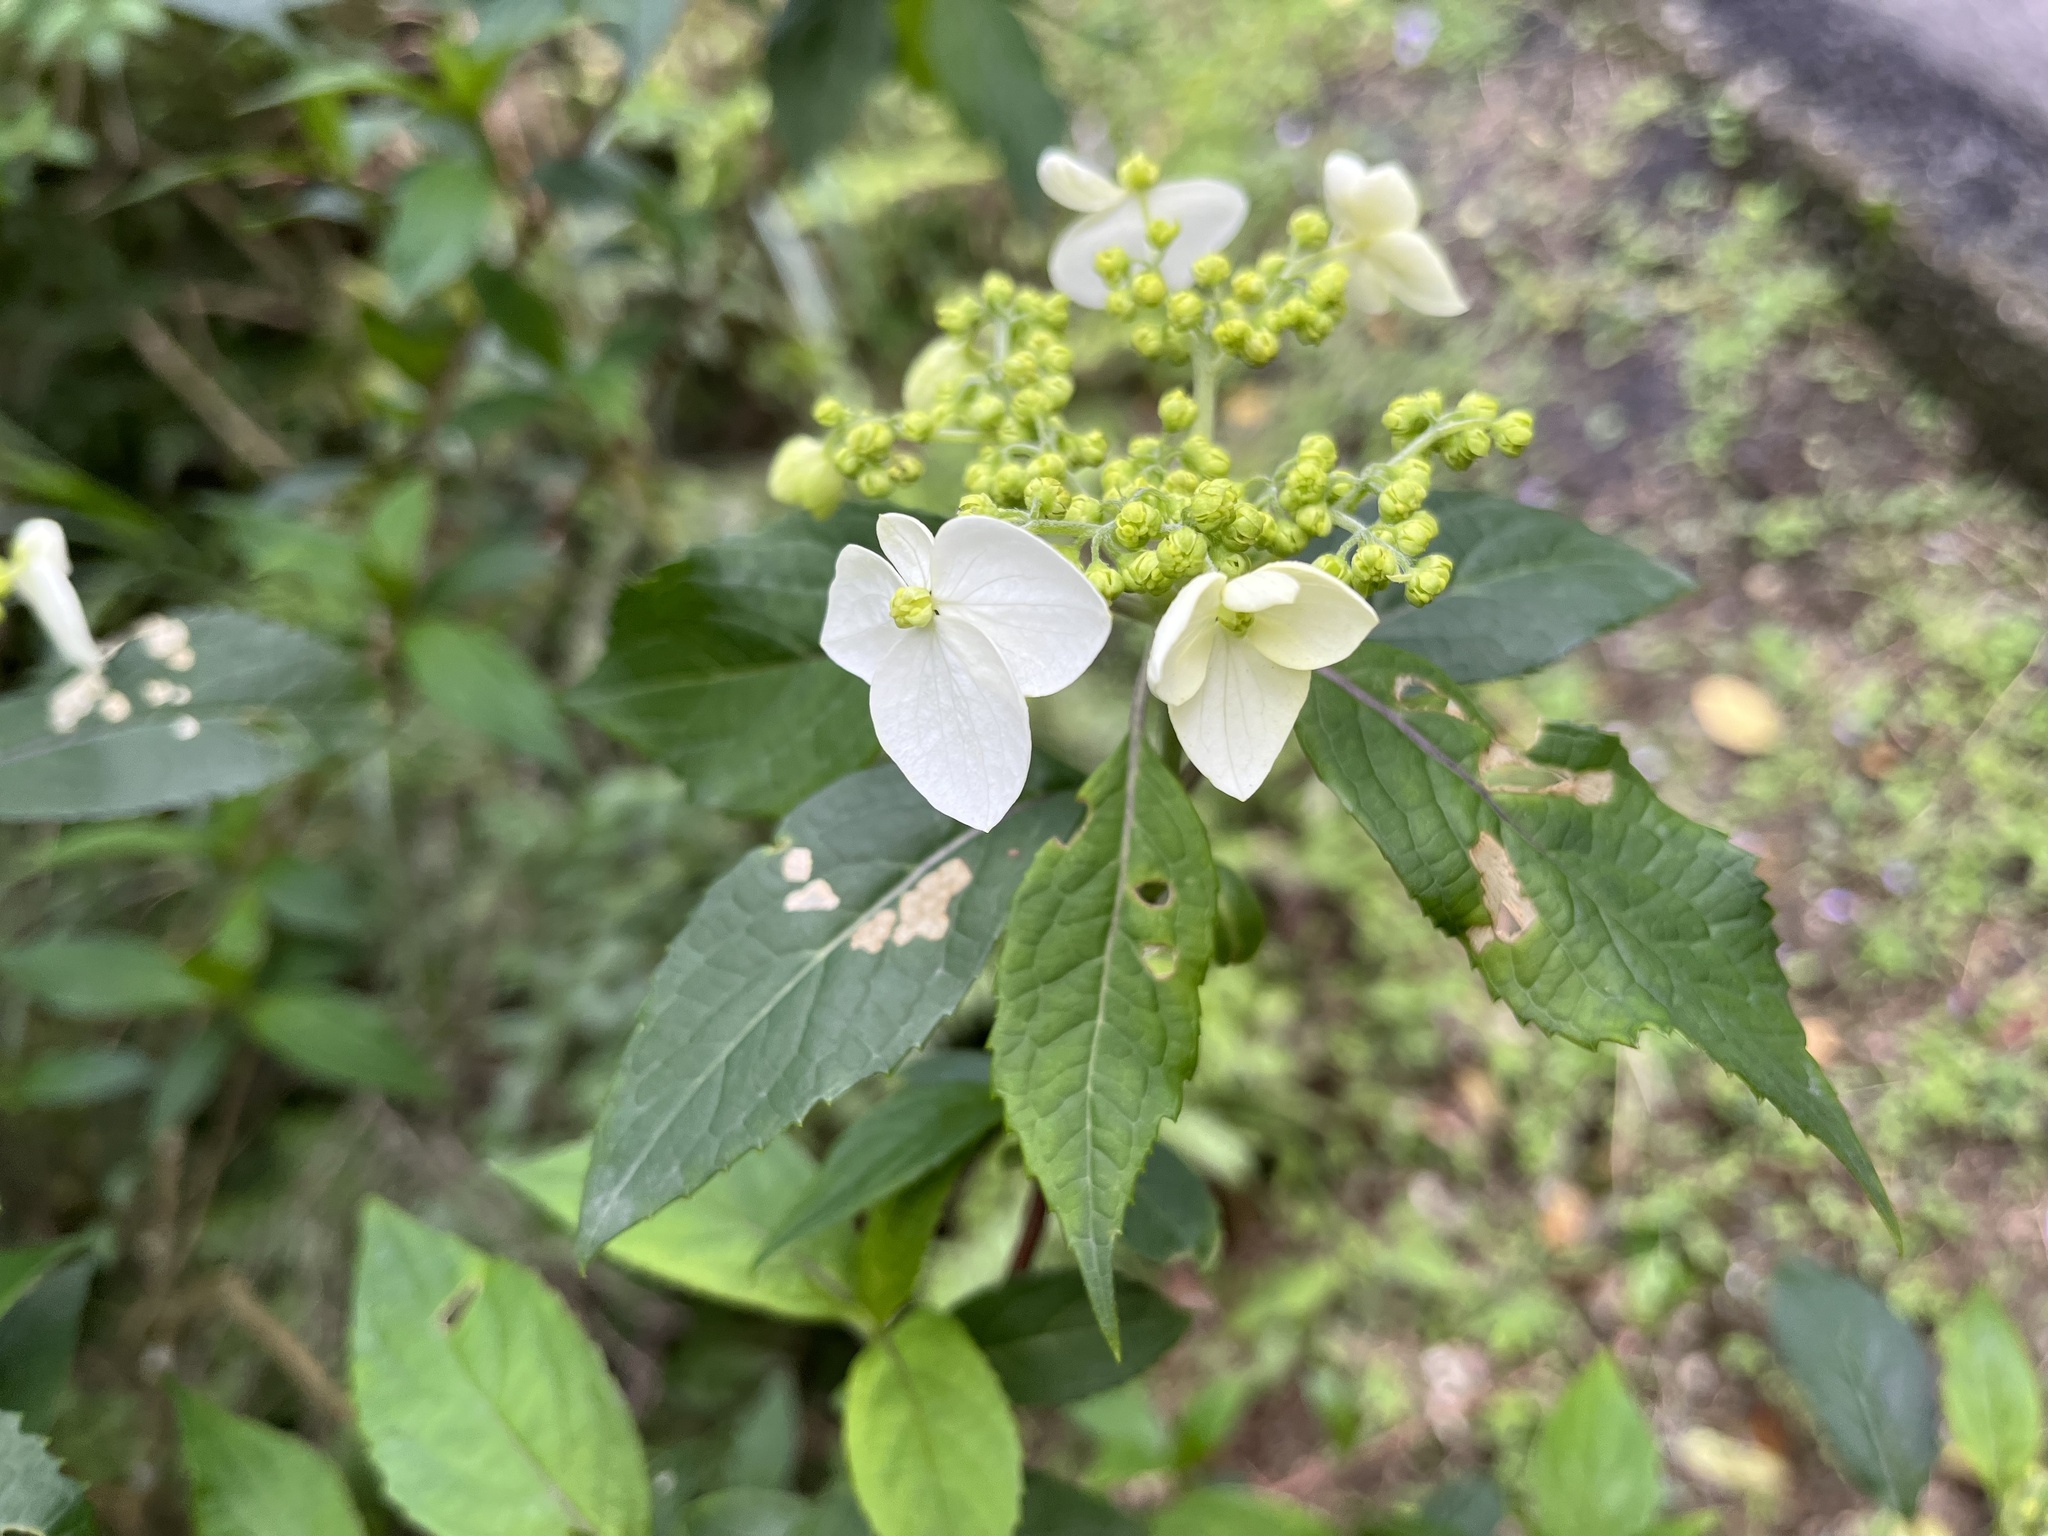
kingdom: Plantae
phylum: Tracheophyta
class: Magnoliopsida
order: Cornales
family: Hydrangeaceae
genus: Hydrangea
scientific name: Hydrangea chinensis
